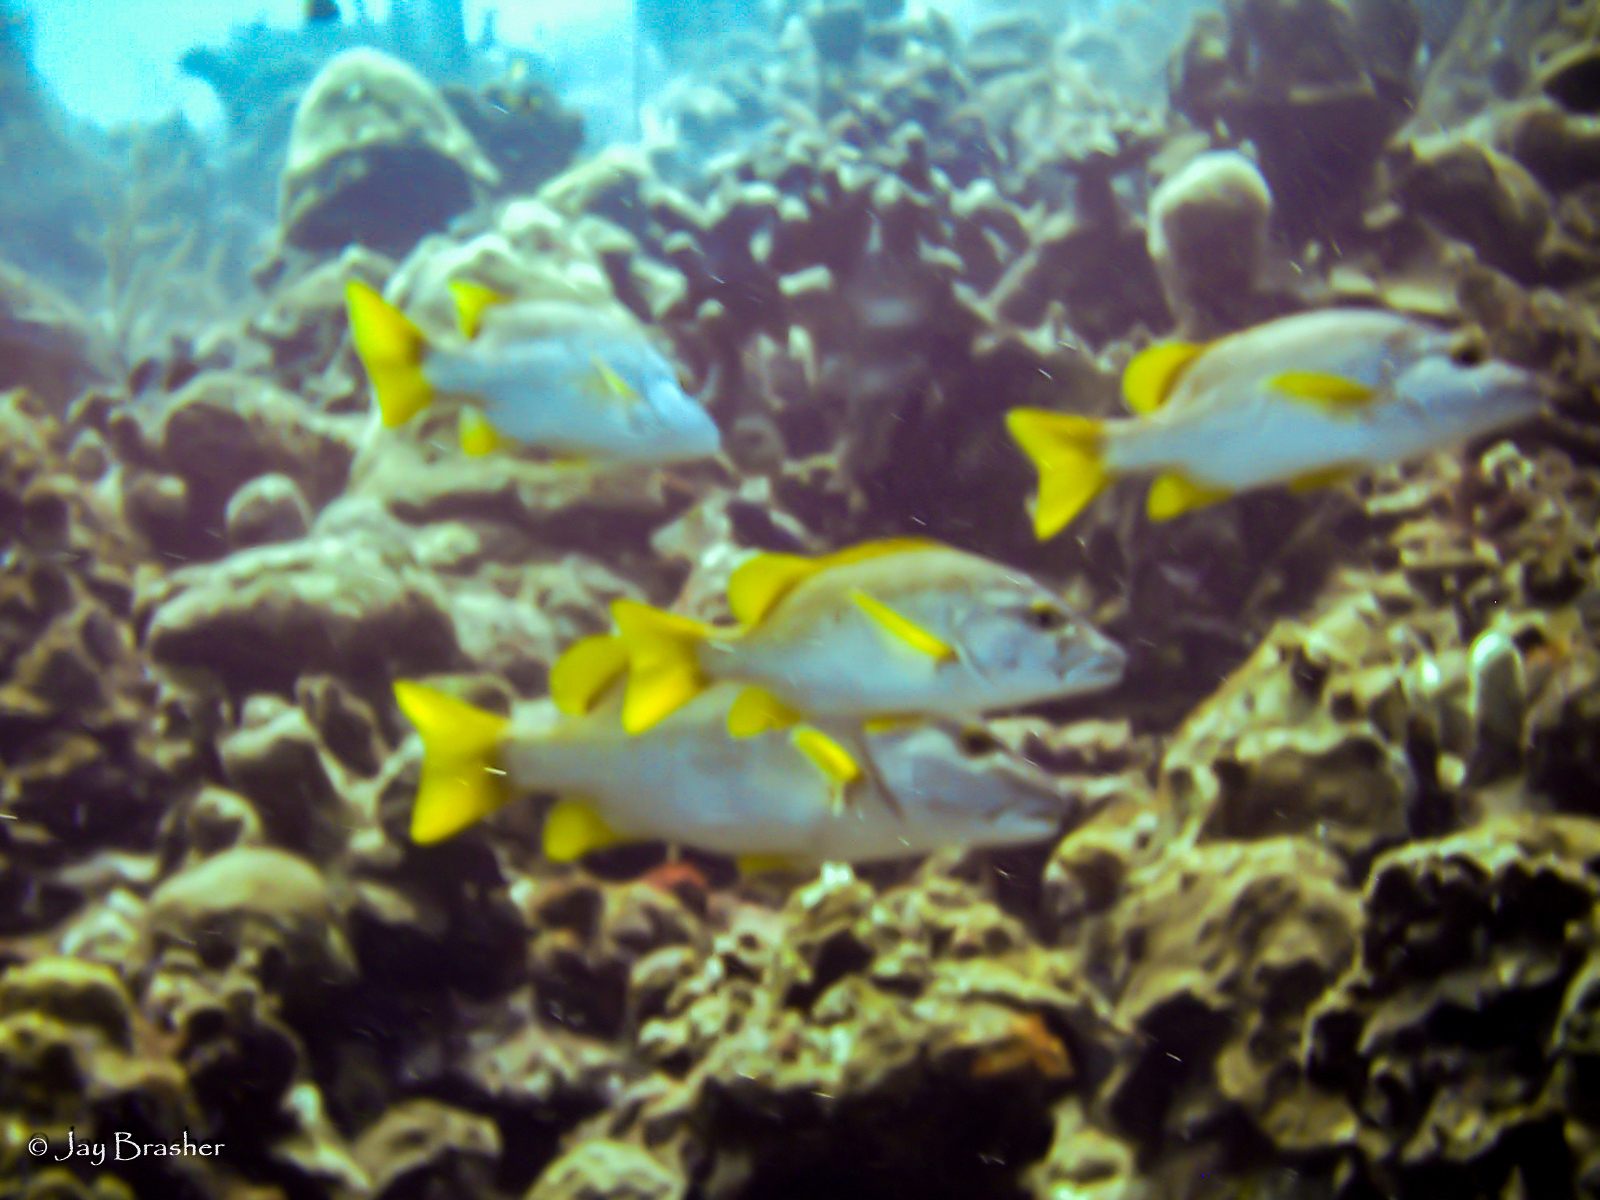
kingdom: Animalia
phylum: Chordata
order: Perciformes
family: Lutjanidae
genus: Lutjanus
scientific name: Lutjanus apodus
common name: Schoolmaster
